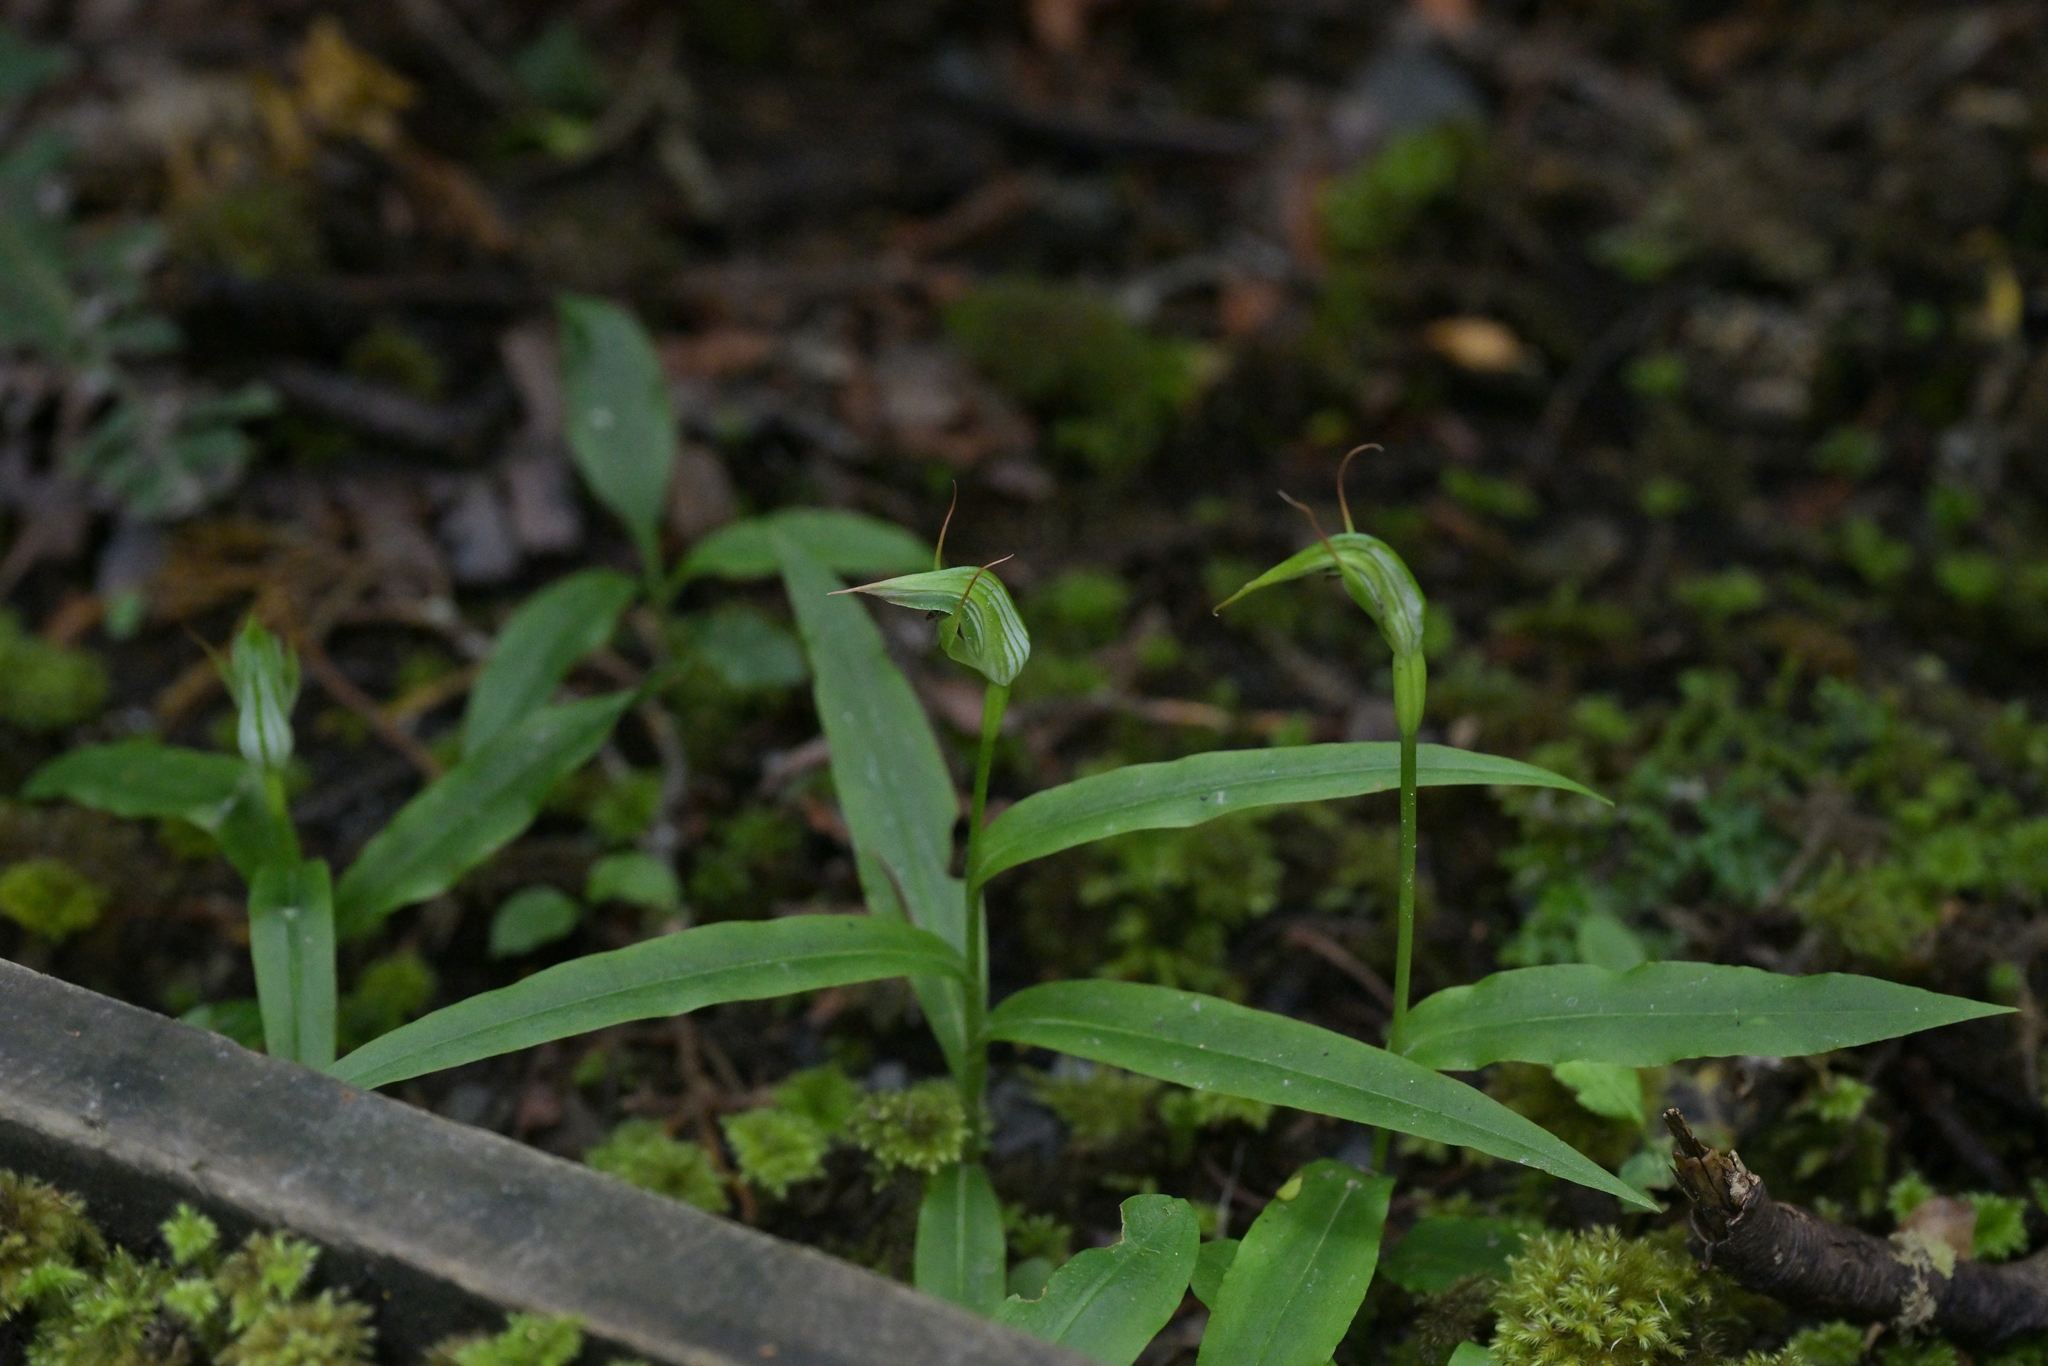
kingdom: Plantae
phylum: Tracheophyta
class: Liliopsida
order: Asparagales
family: Orchidaceae
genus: Pterostylis
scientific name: Pterostylis auriculata
